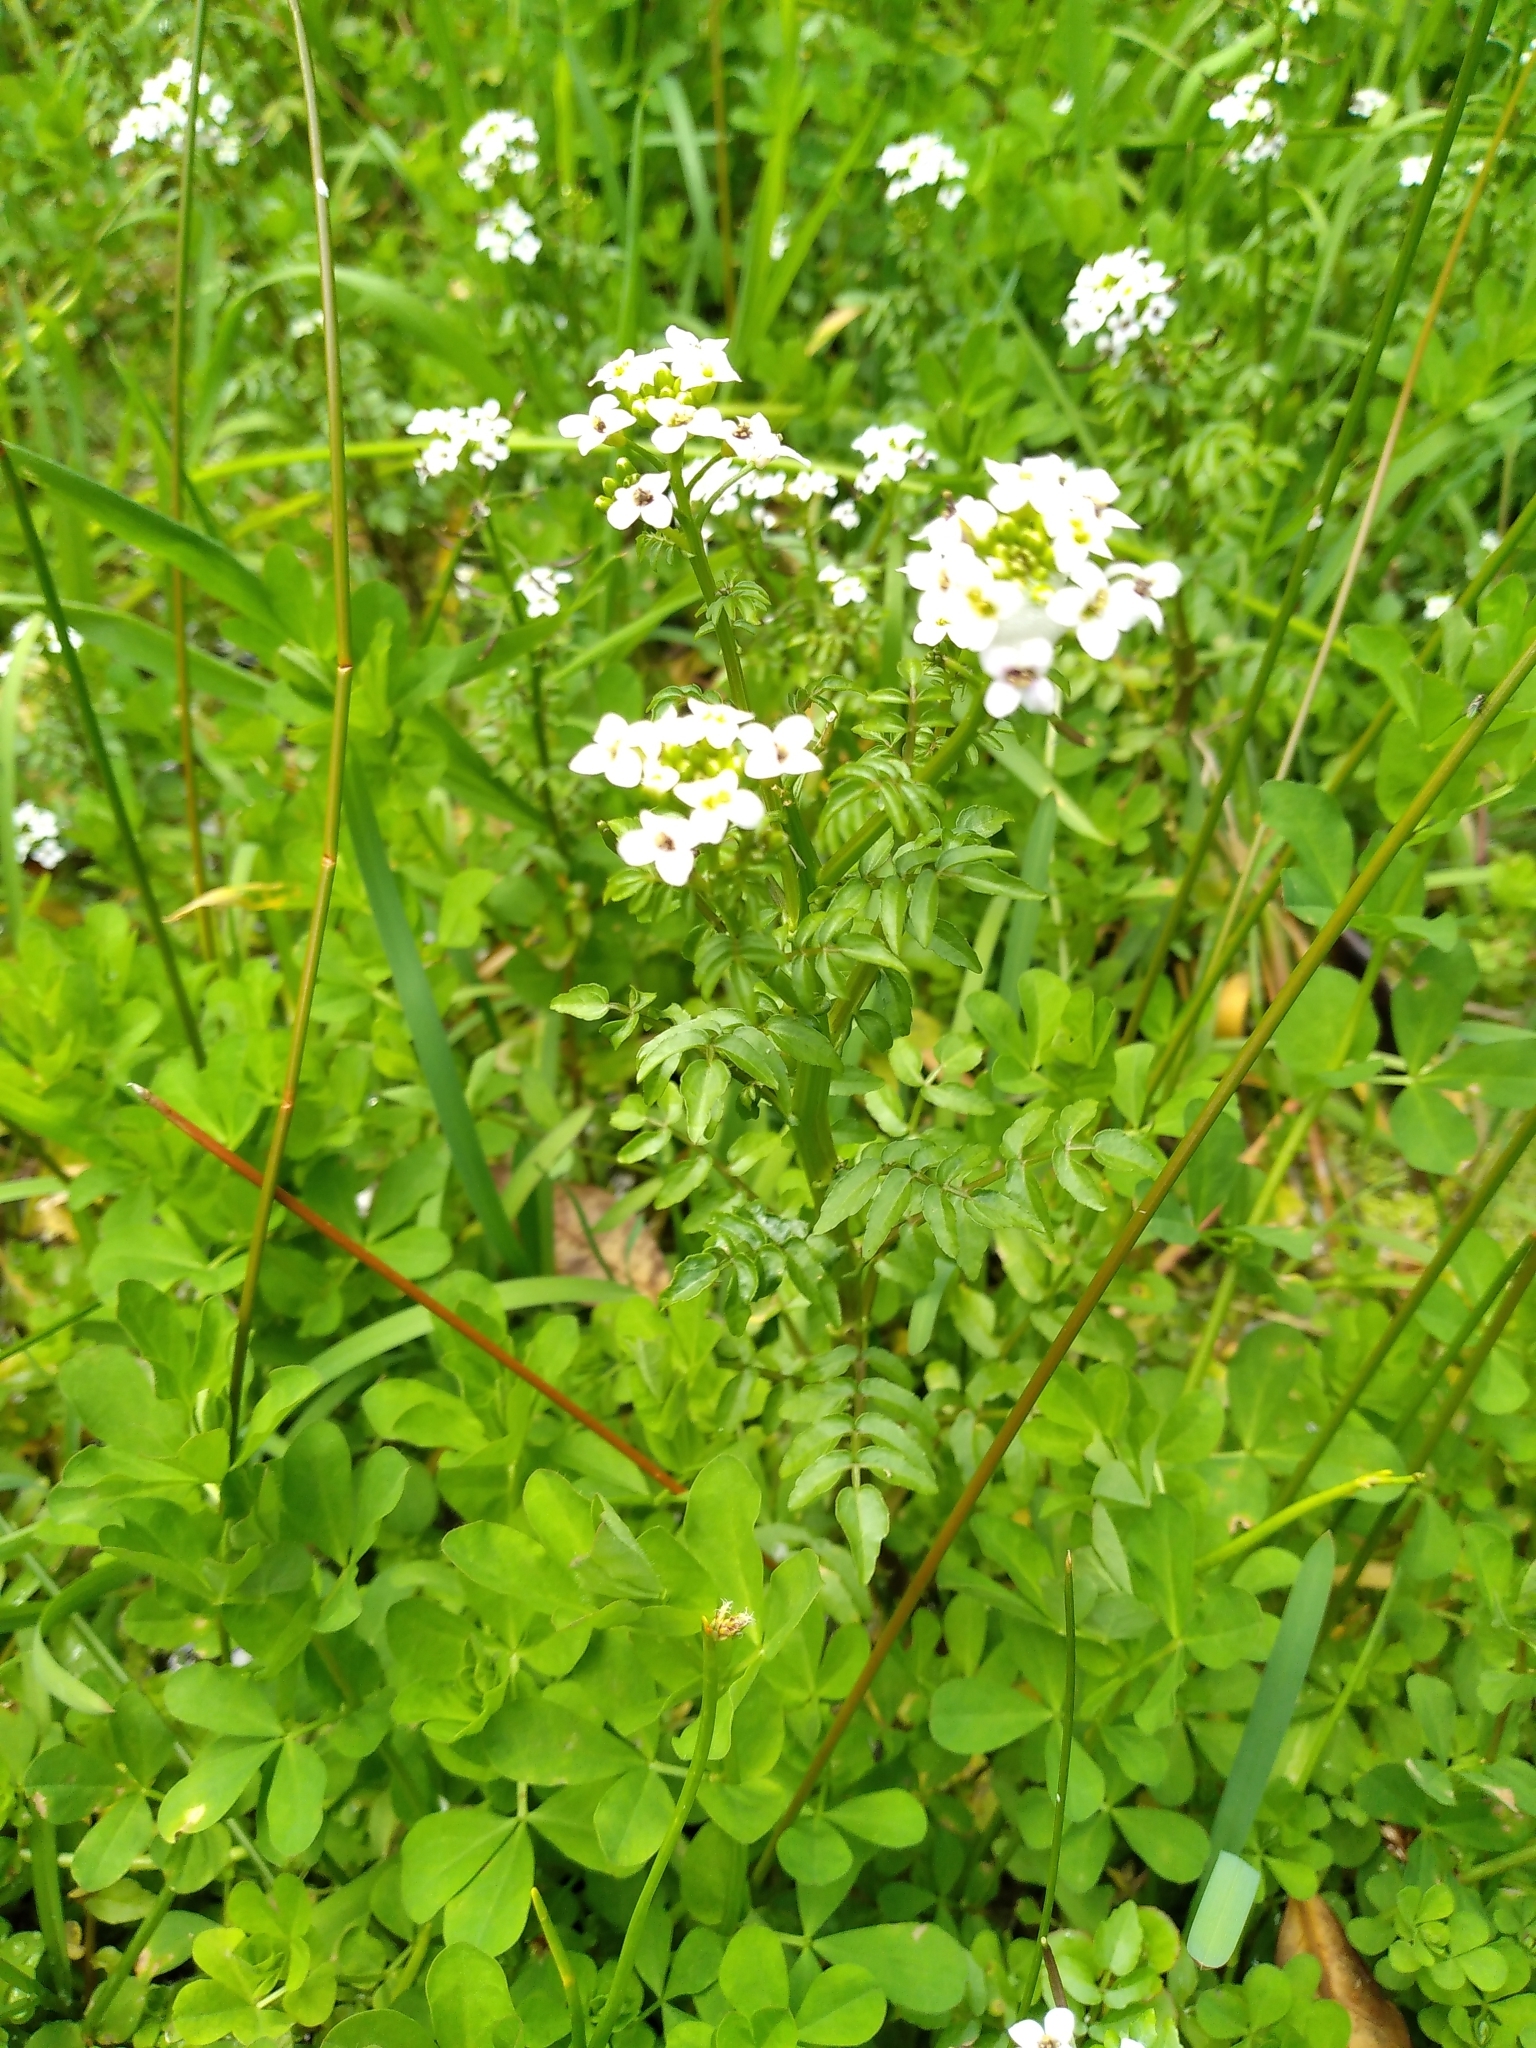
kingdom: Plantae
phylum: Tracheophyta
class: Magnoliopsida
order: Brassicales
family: Brassicaceae
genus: Nasturtium
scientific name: Nasturtium officinale
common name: Watercress
